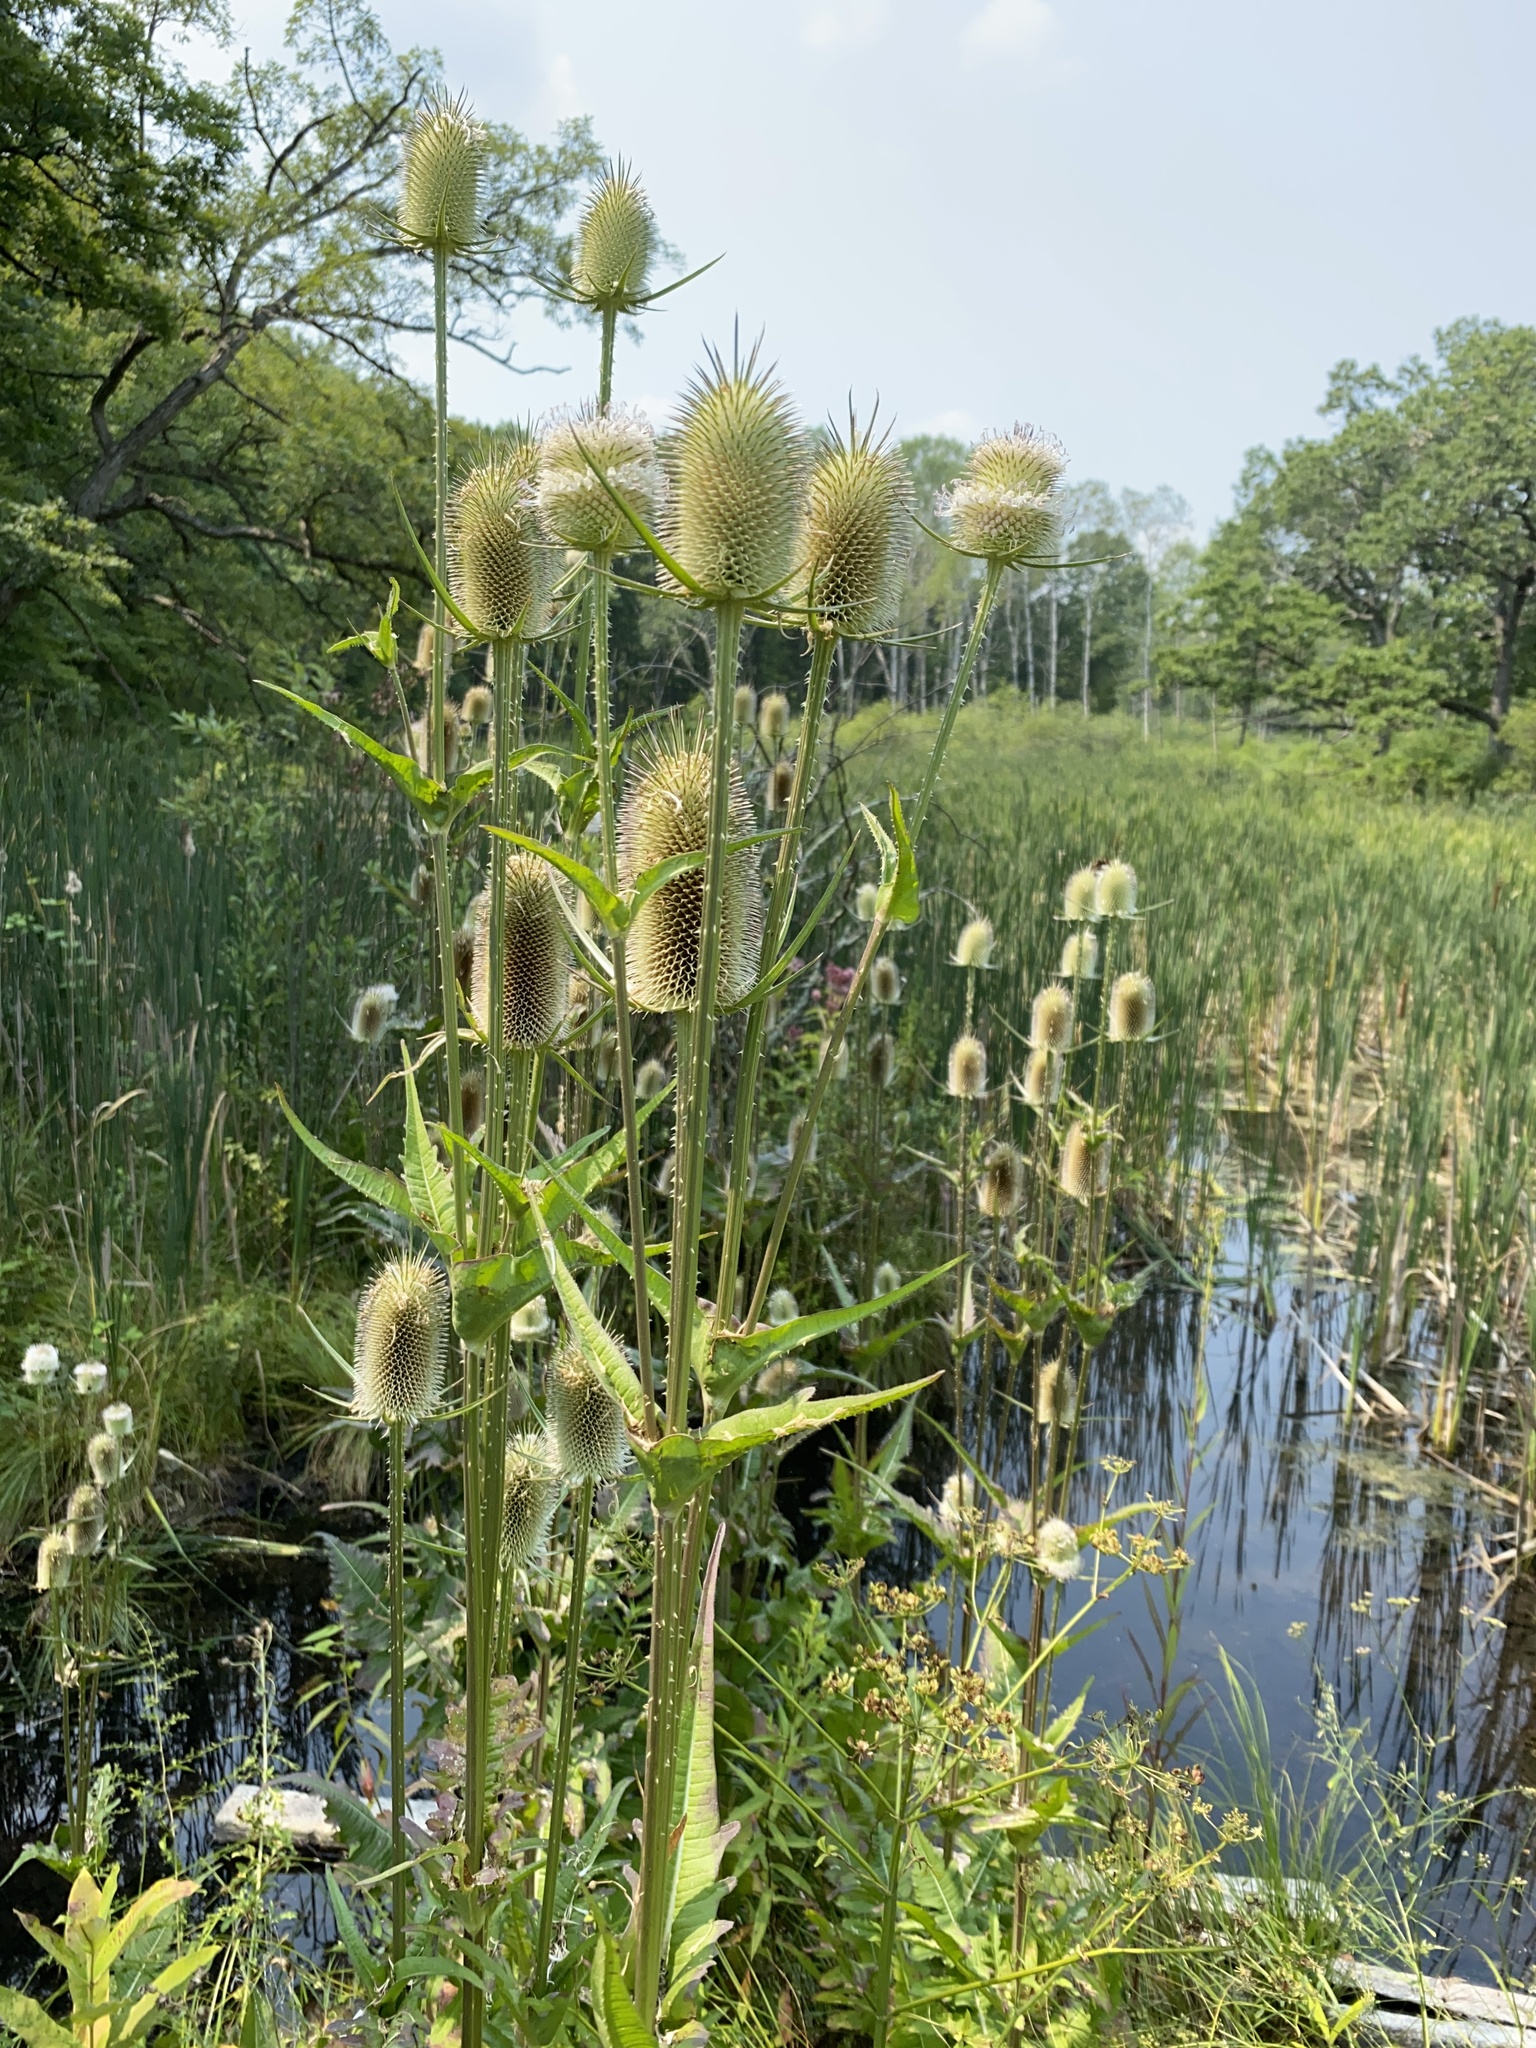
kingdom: Plantae
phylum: Tracheophyta
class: Magnoliopsida
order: Dipsacales
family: Caprifoliaceae
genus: Dipsacus
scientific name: Dipsacus laciniatus
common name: Cut-leaved teasel
